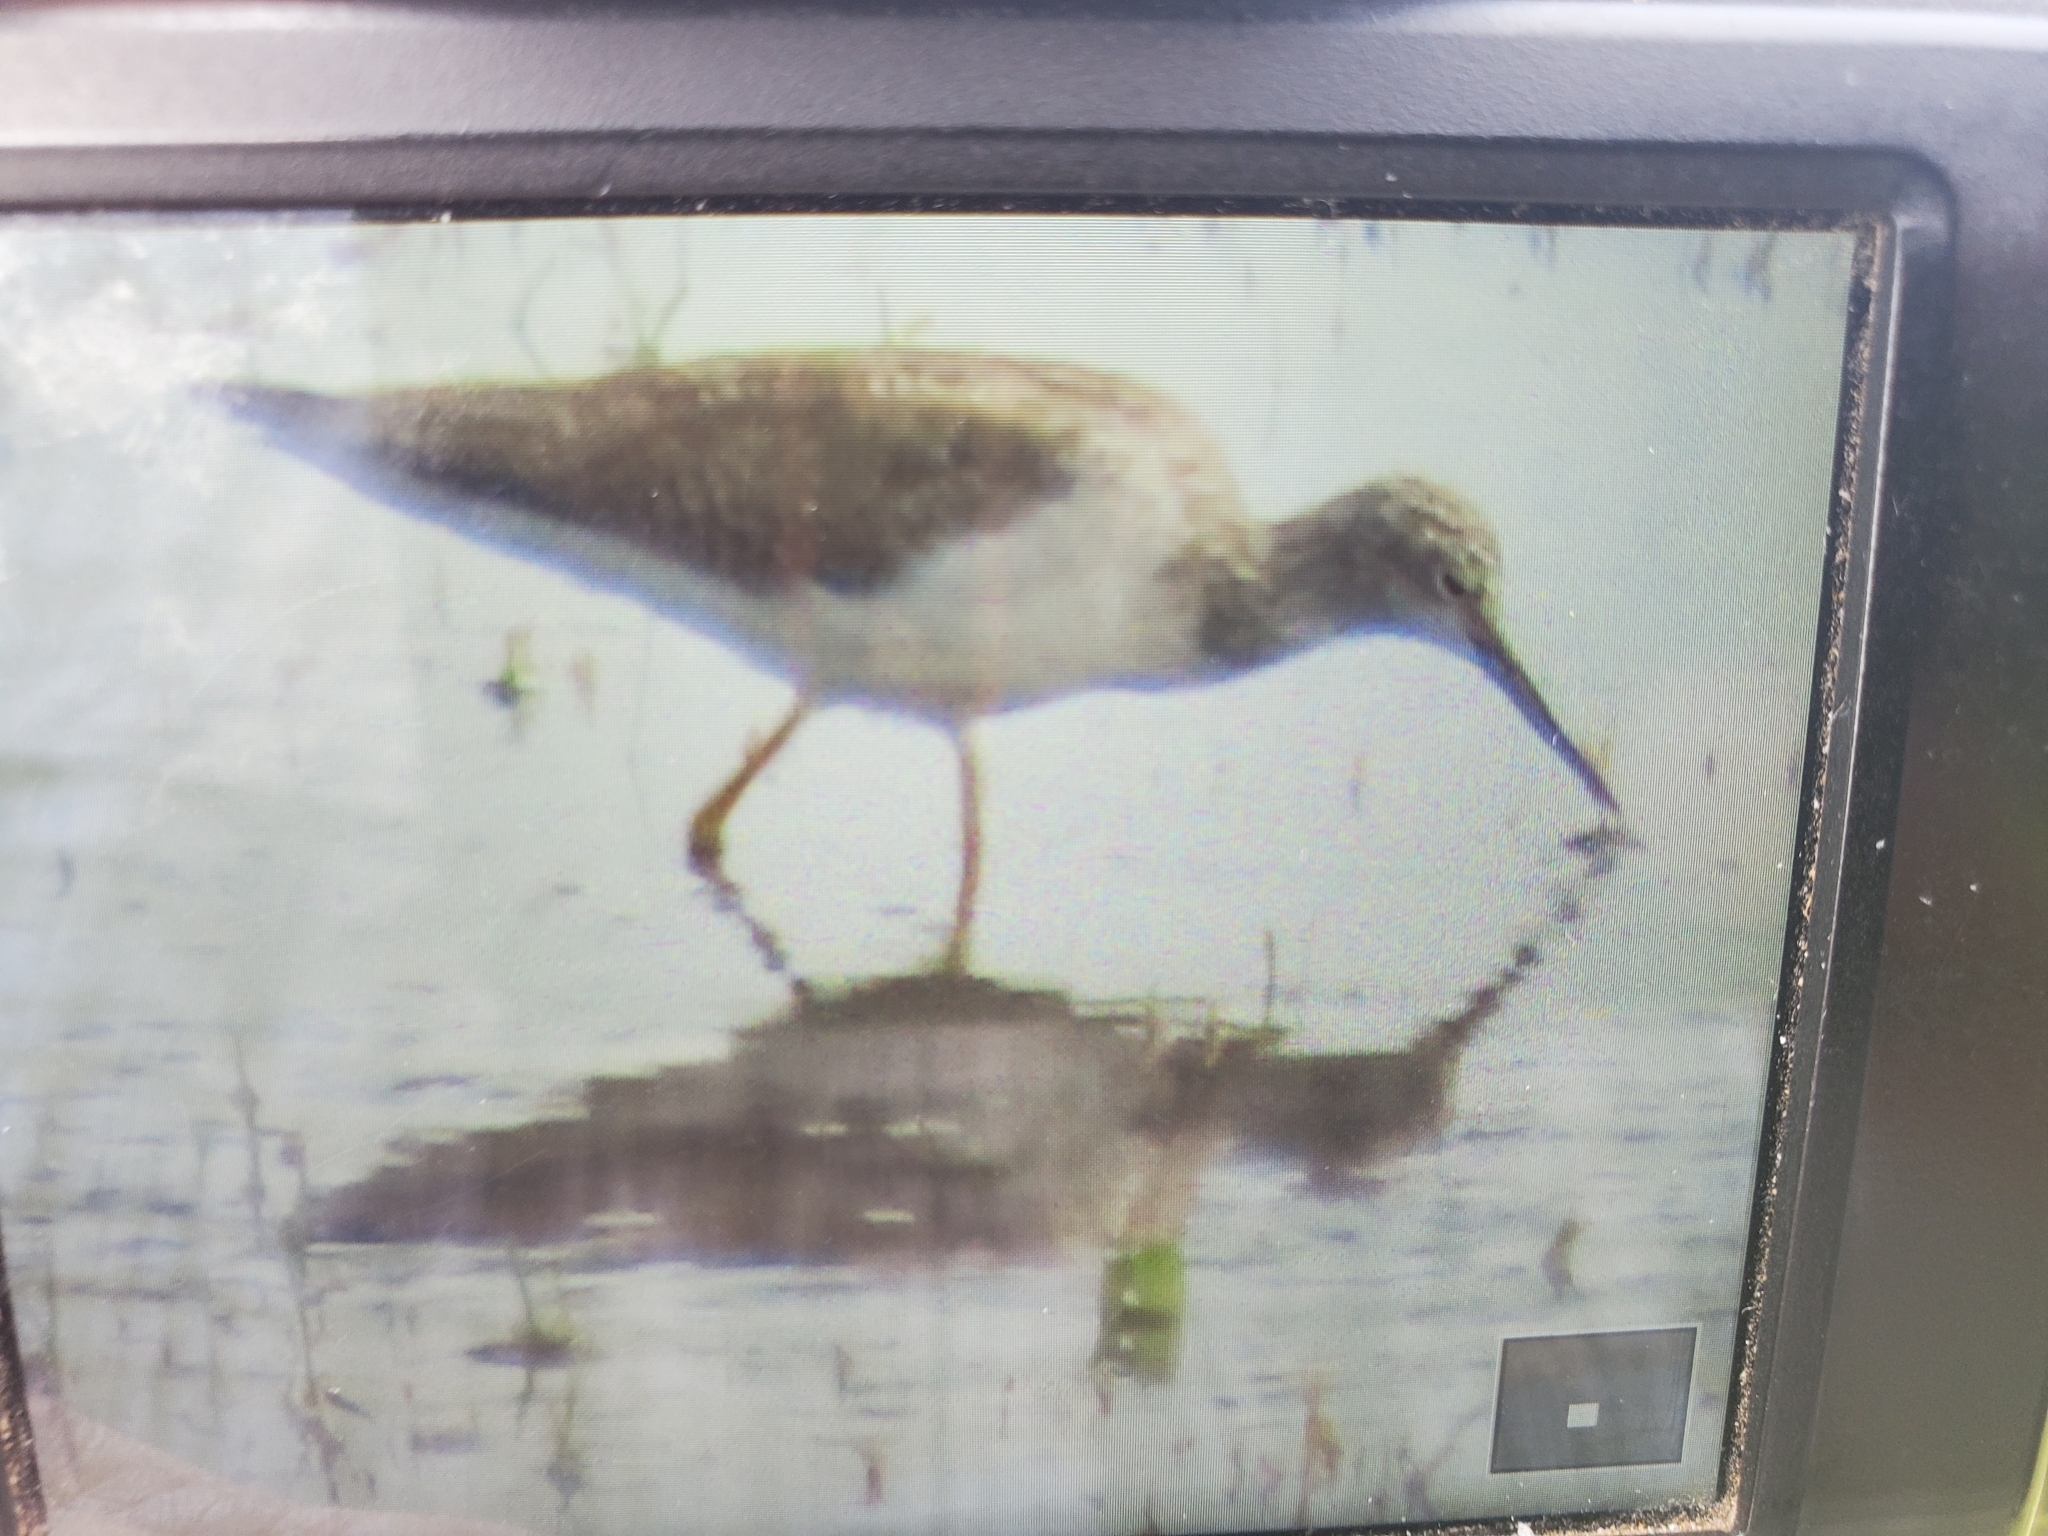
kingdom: Animalia
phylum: Chordata
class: Aves
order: Charadriiformes
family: Scolopacidae
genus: Tringa
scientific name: Tringa melanoleuca
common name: Greater yellowlegs
